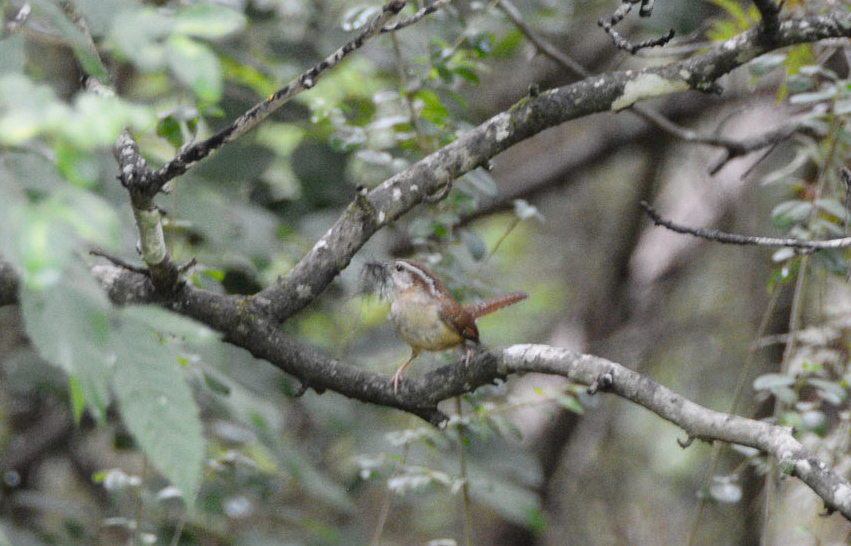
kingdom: Animalia
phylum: Chordata
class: Aves
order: Passeriformes
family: Troglodytidae
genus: Thryothorus
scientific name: Thryothorus ludovicianus
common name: Carolina wren
